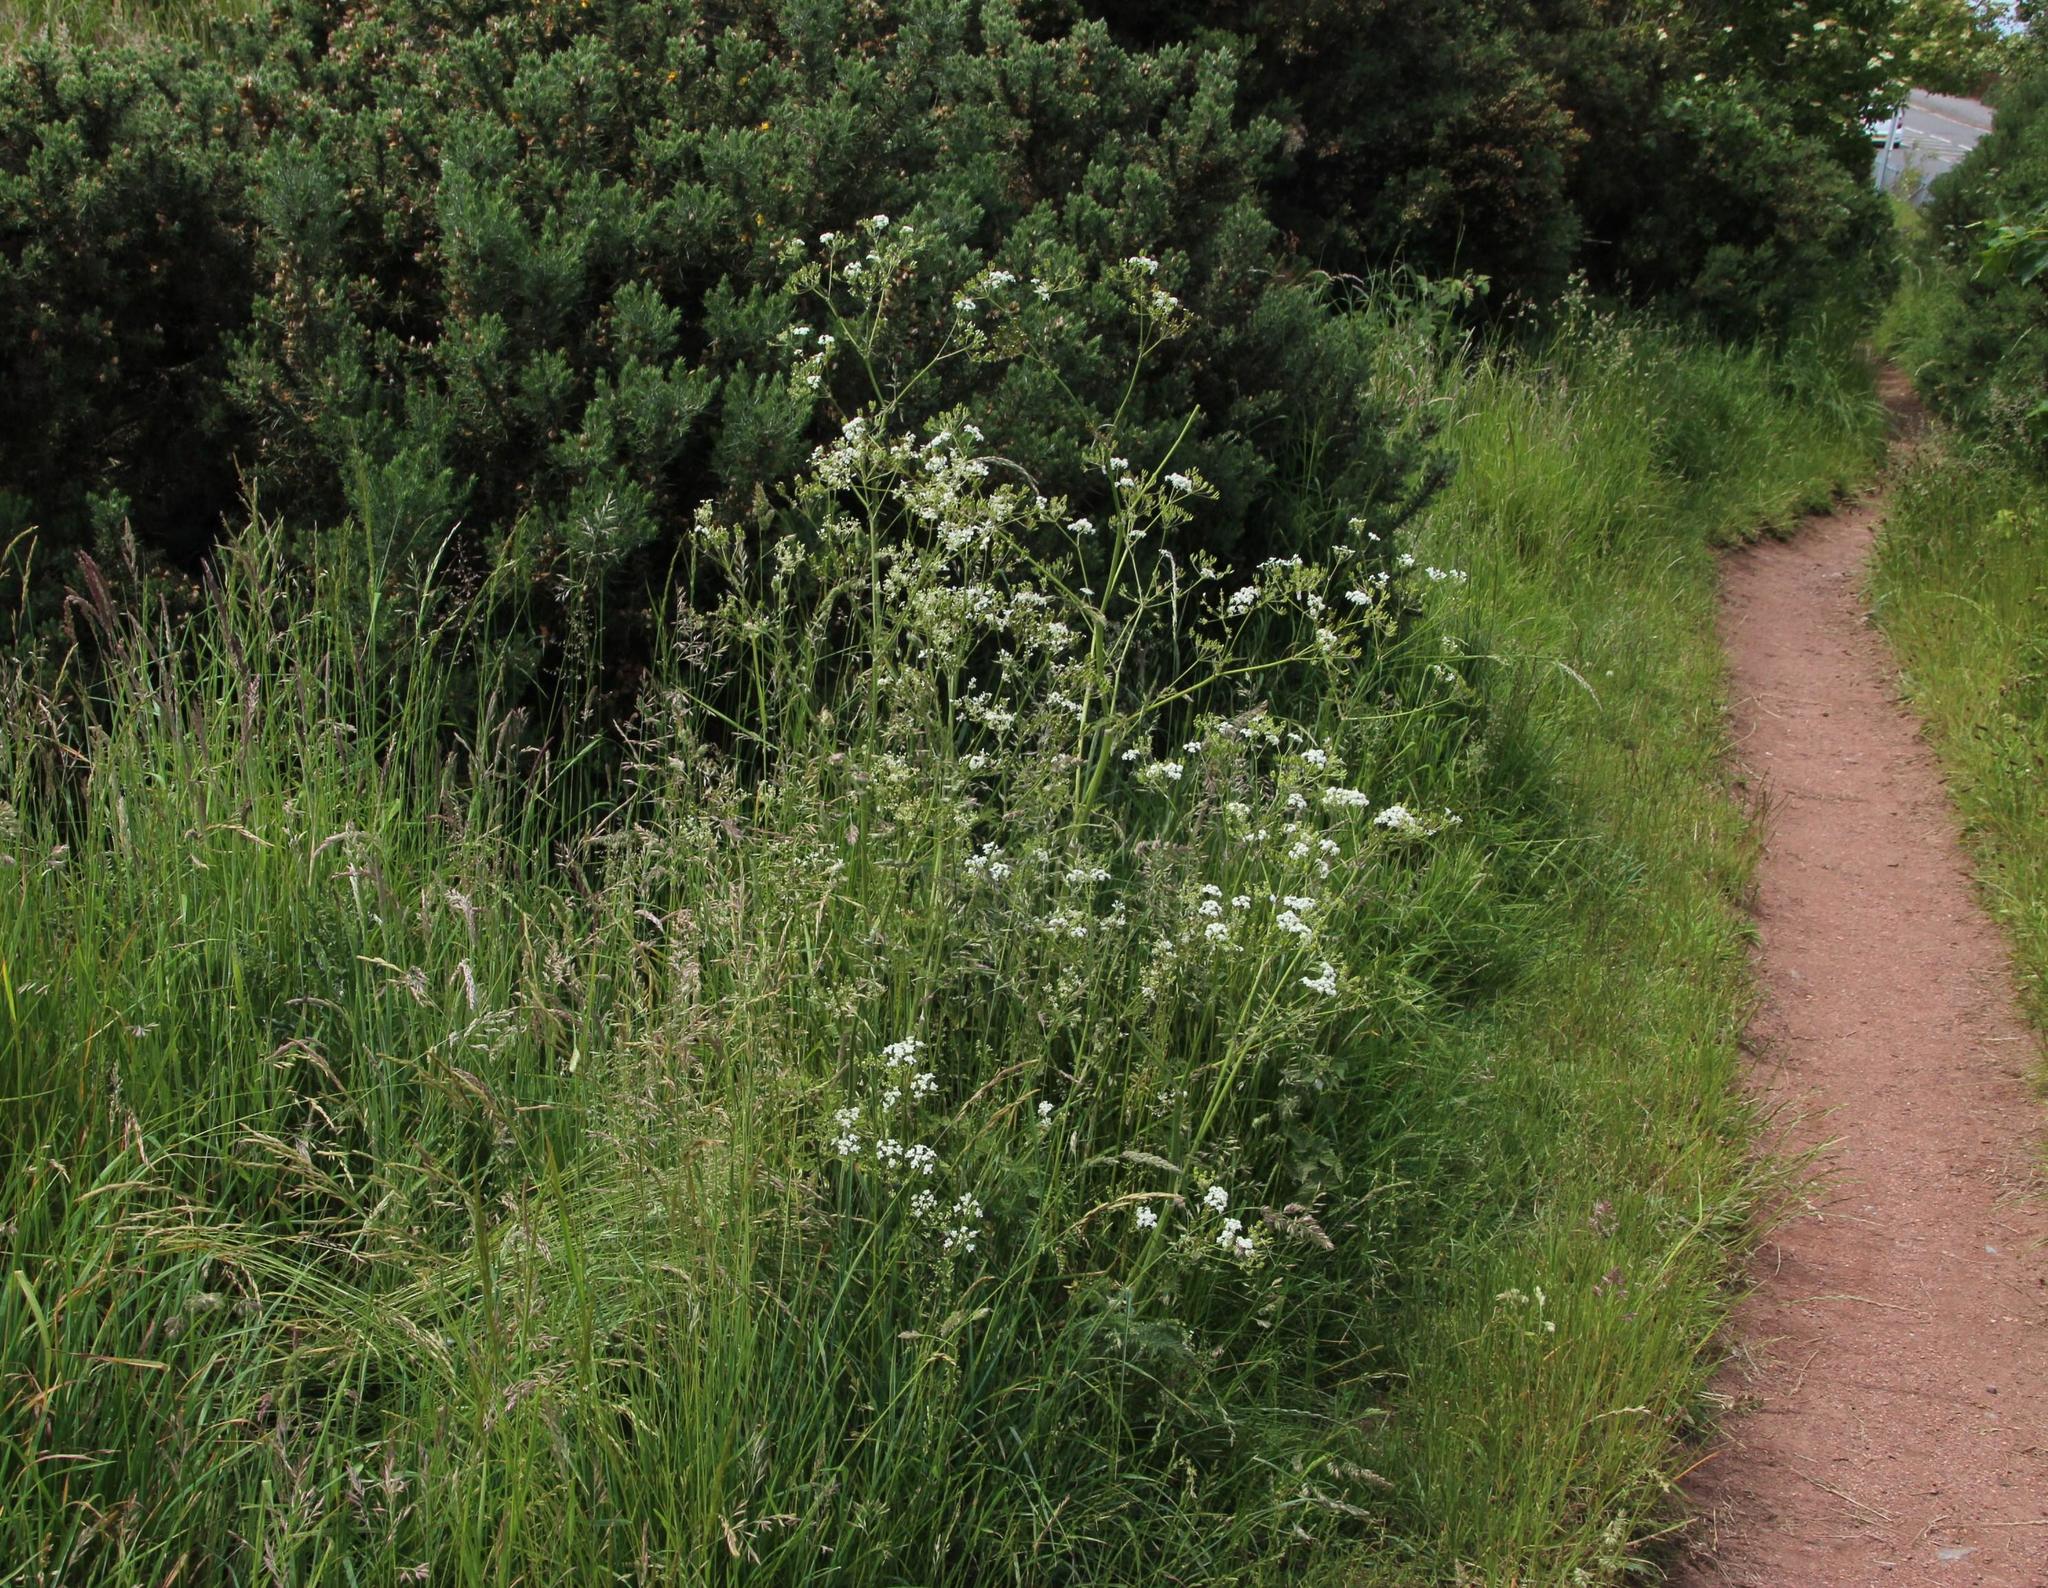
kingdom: Plantae
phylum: Tracheophyta
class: Magnoliopsida
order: Apiales
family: Apiaceae
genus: Anthriscus
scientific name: Anthriscus sylvestris
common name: Cow parsley
